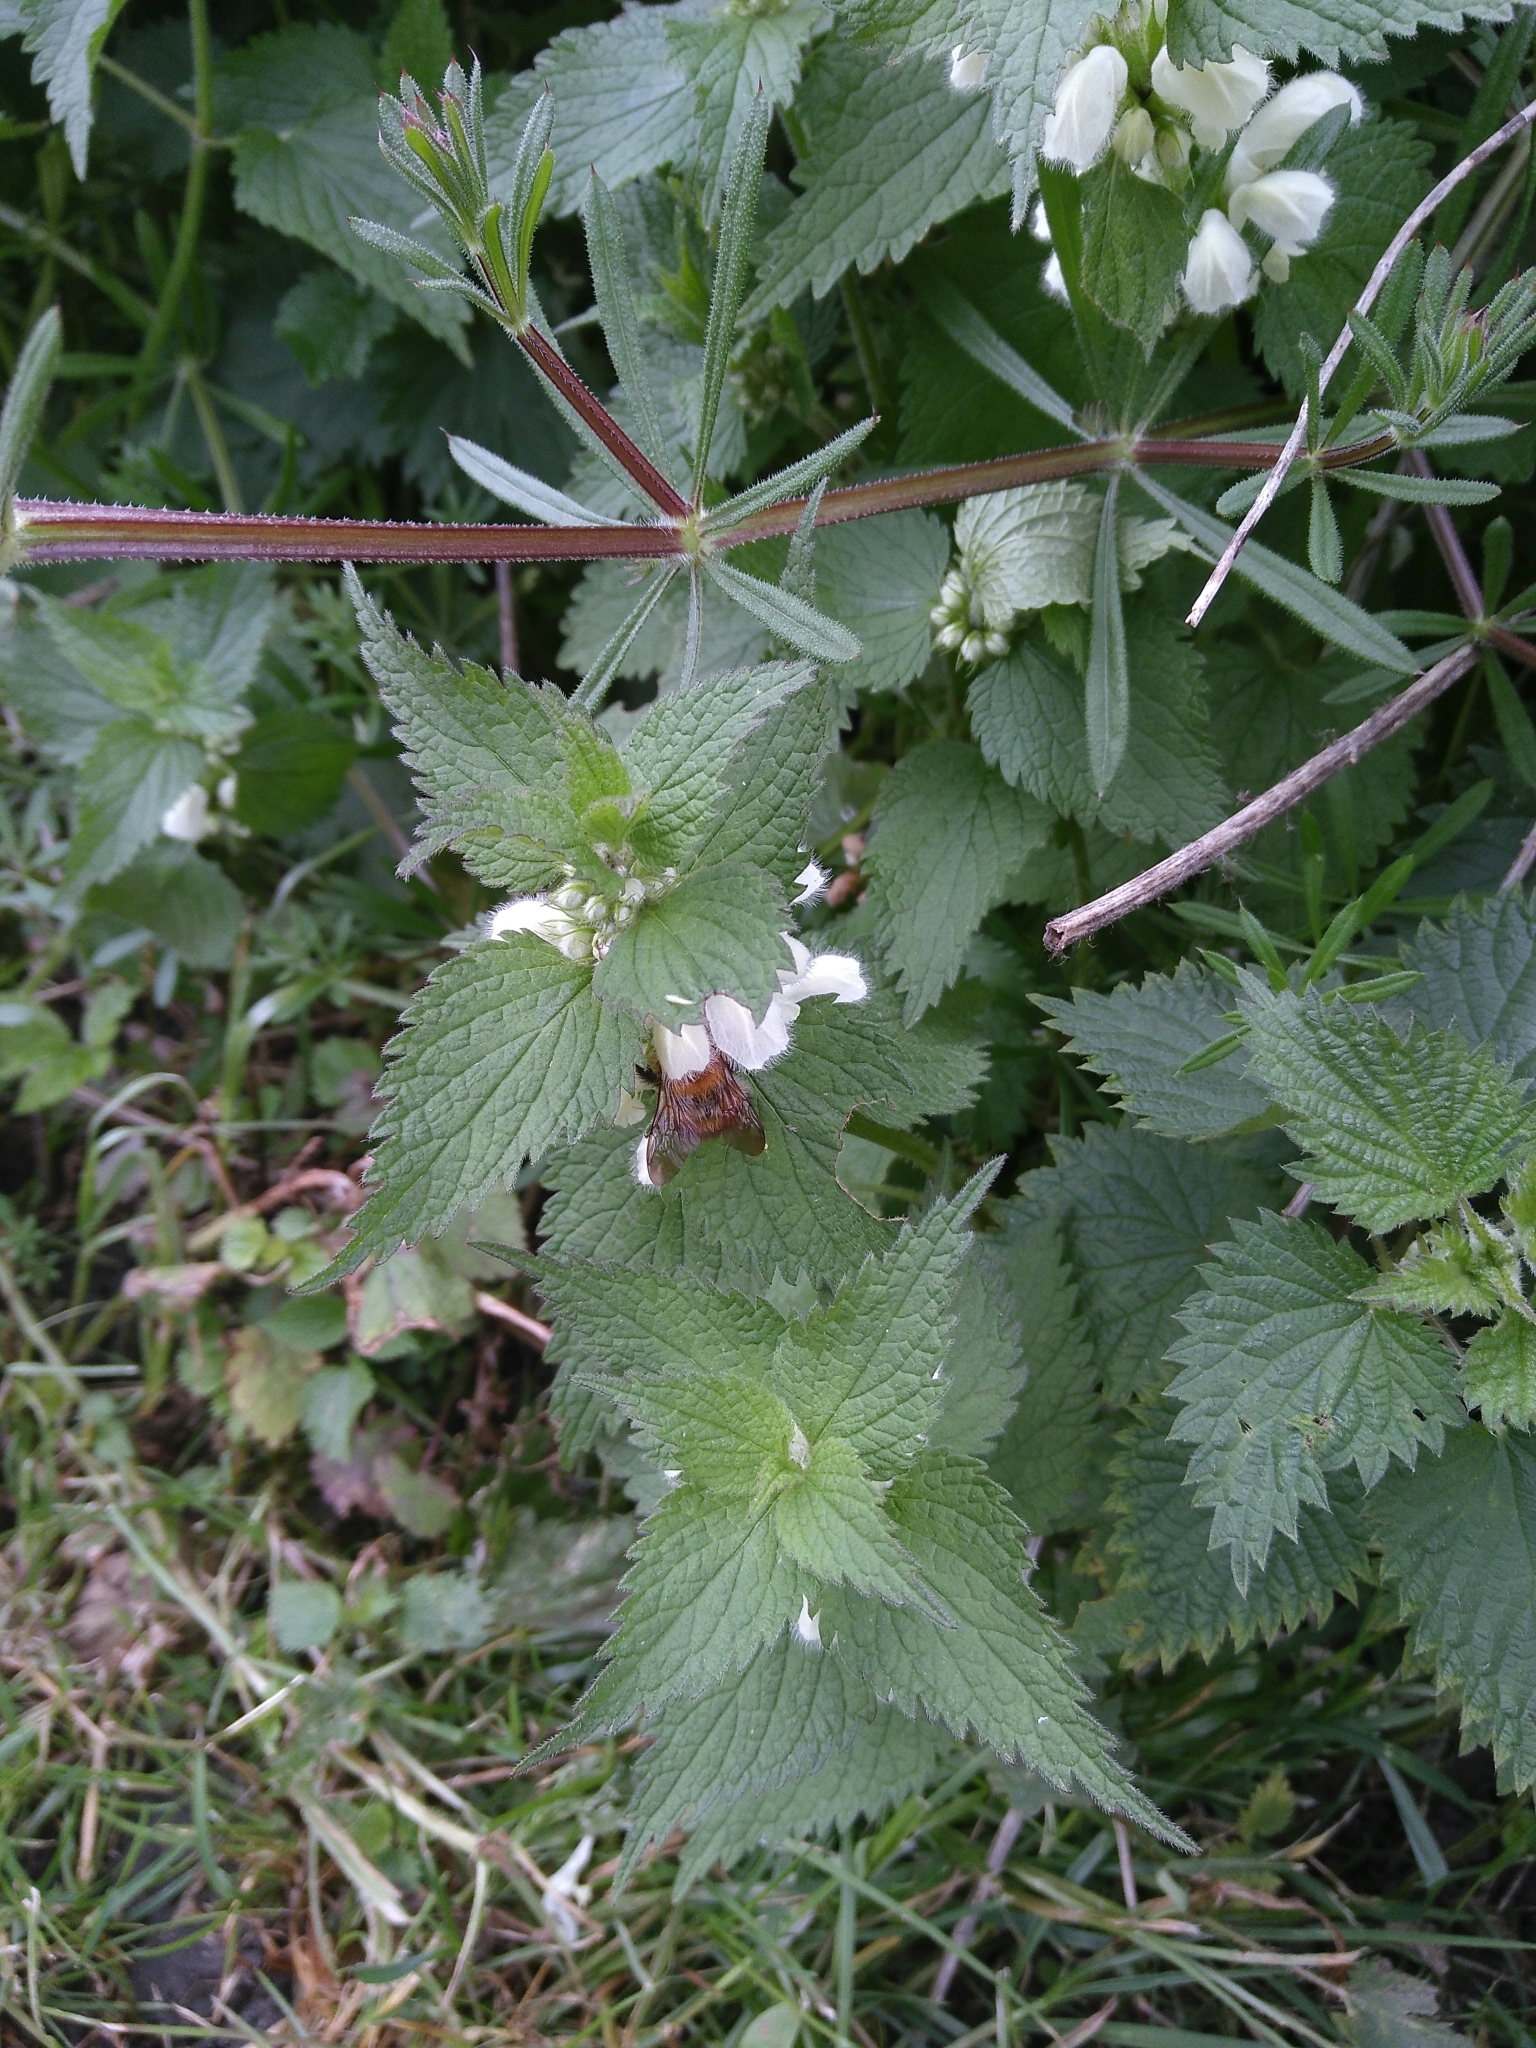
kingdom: Animalia
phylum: Arthropoda
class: Insecta
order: Hymenoptera
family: Apidae
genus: Bombus
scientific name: Bombus pascuorum
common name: Common carder bee
